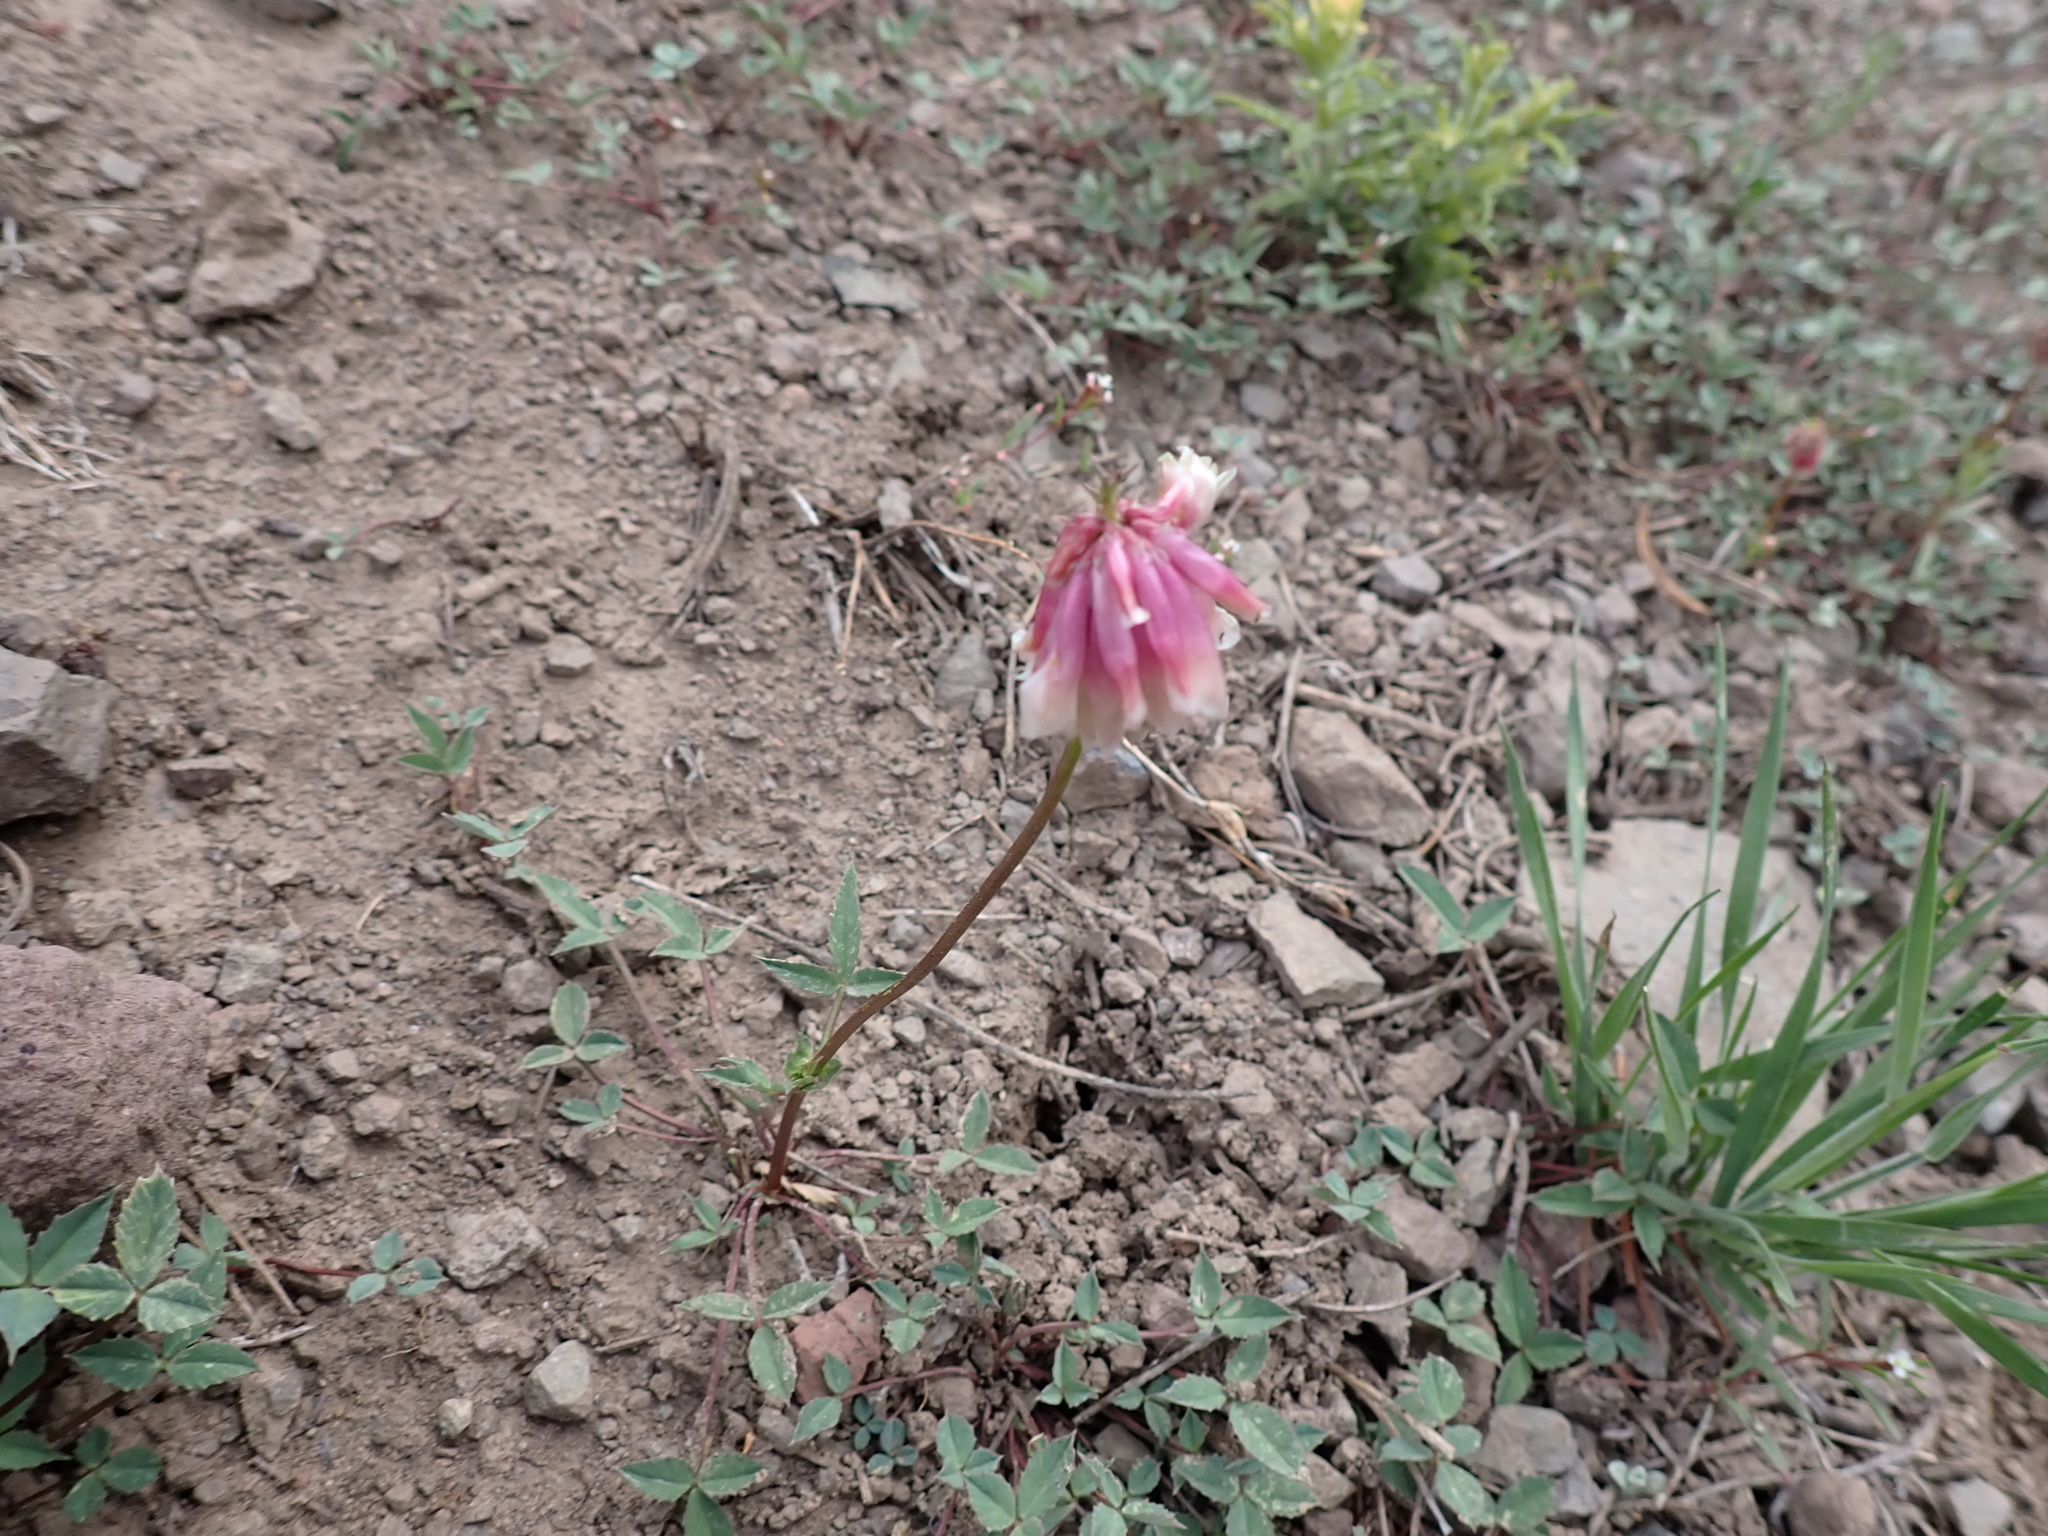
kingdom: Plantae
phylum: Tracheophyta
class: Magnoliopsida
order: Fabales
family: Fabaceae
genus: Trifolium
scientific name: Trifolium productum
